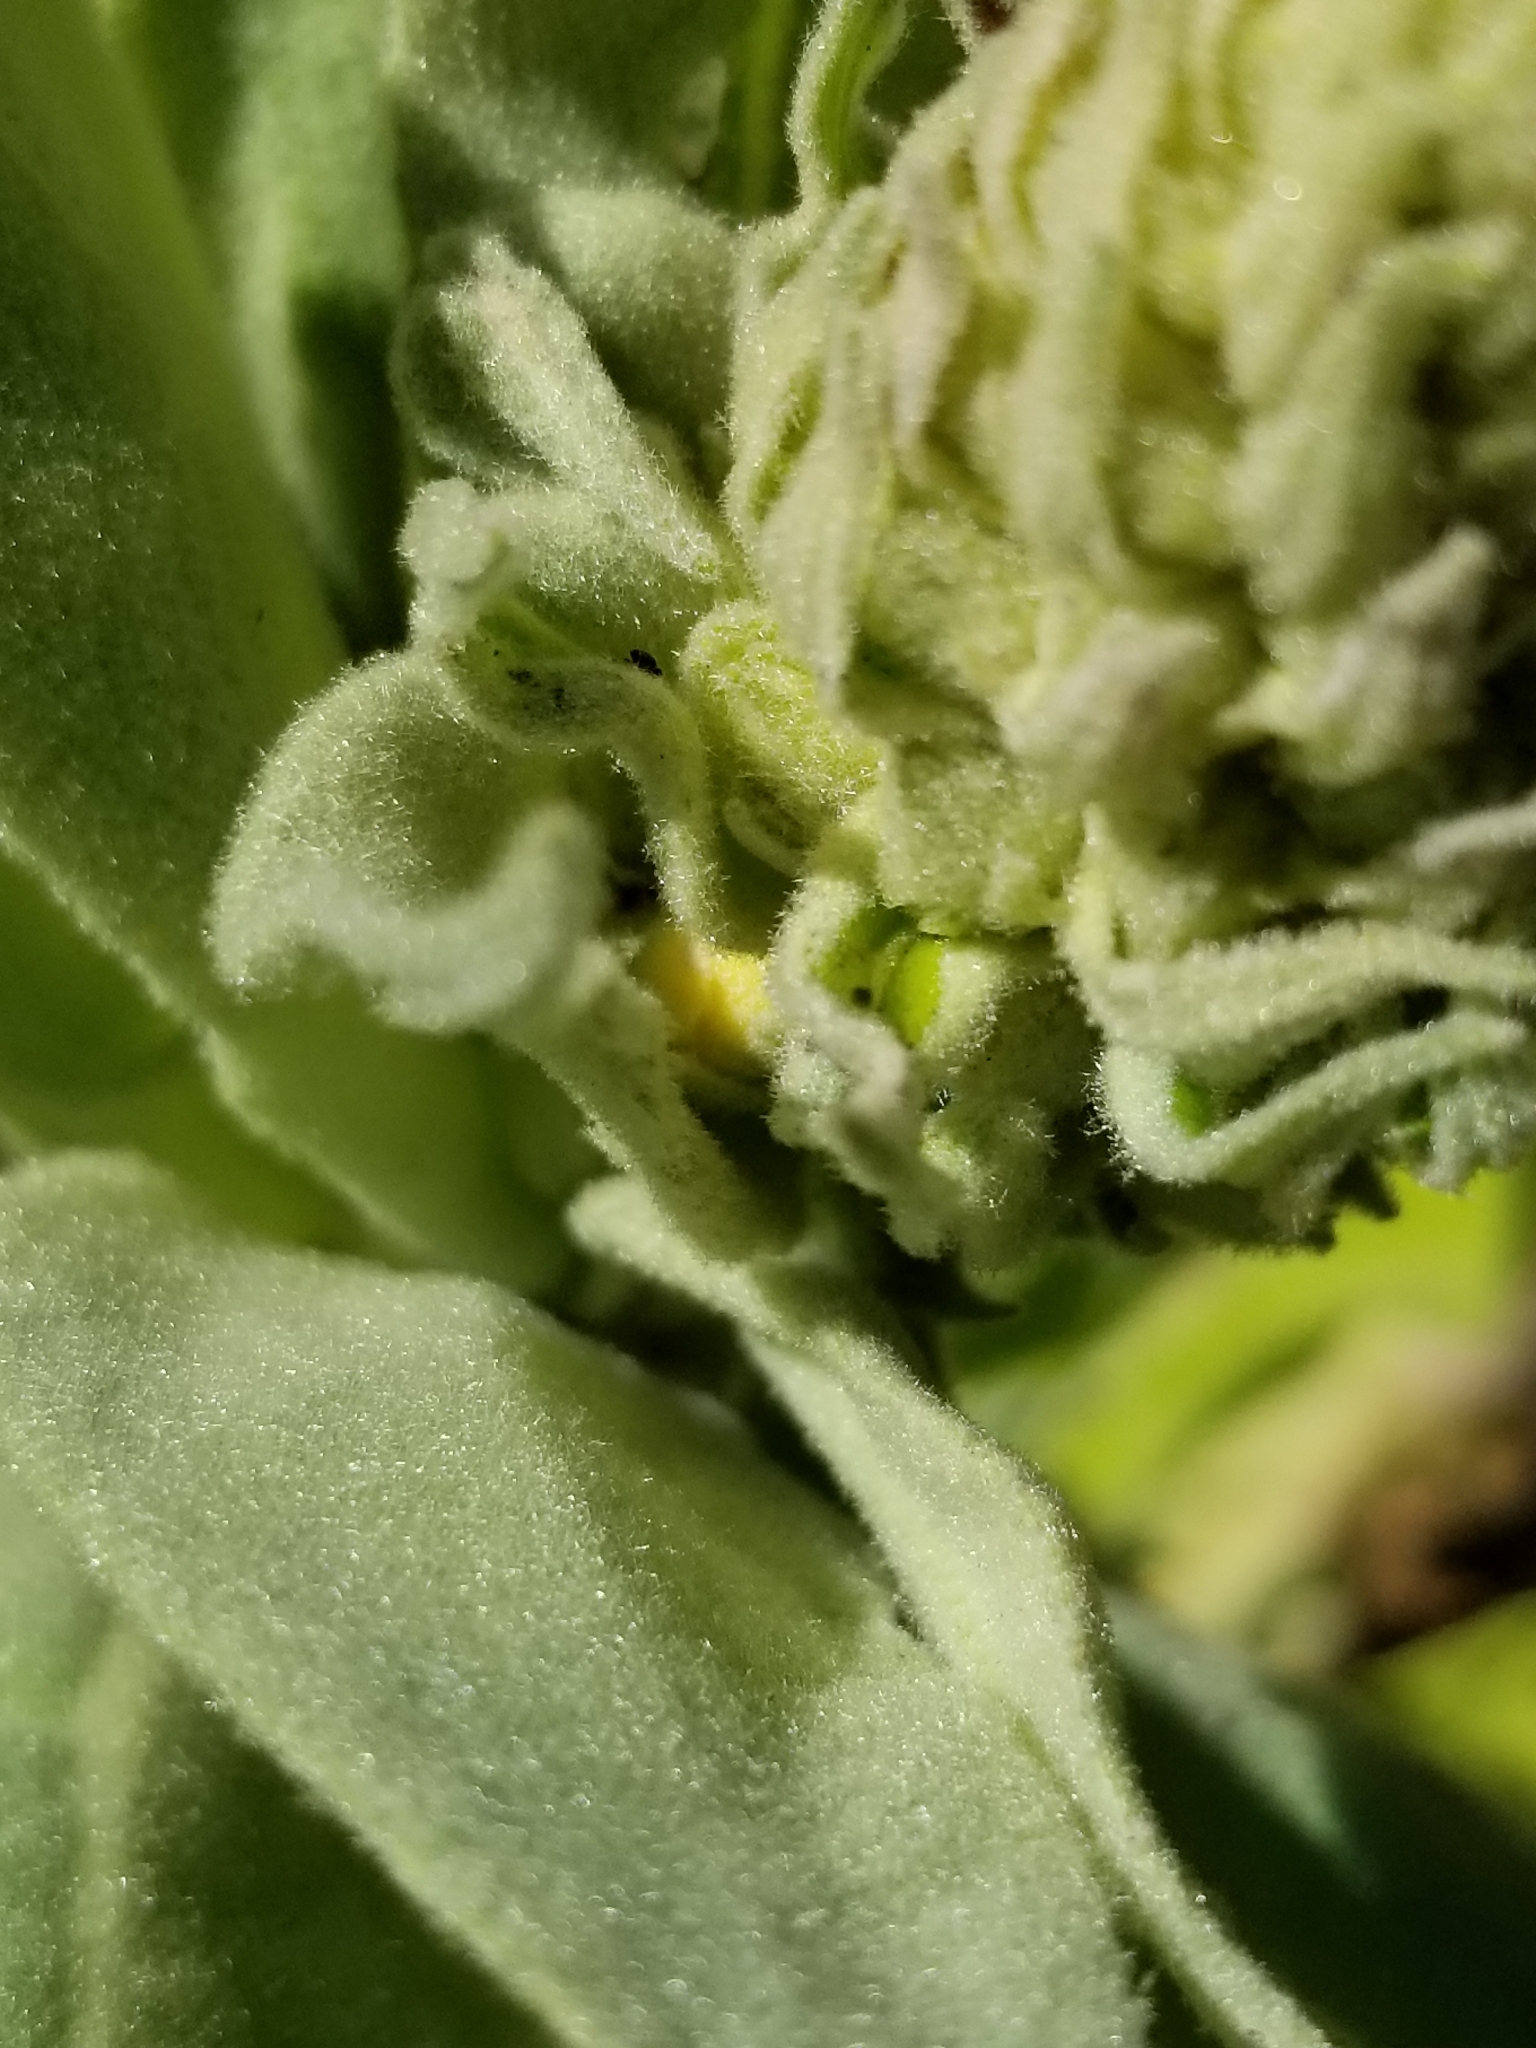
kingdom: Plantae
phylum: Tracheophyta
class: Magnoliopsida
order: Lamiales
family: Scrophulariaceae
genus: Verbascum
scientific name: Verbascum thapsus
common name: Common mullein
